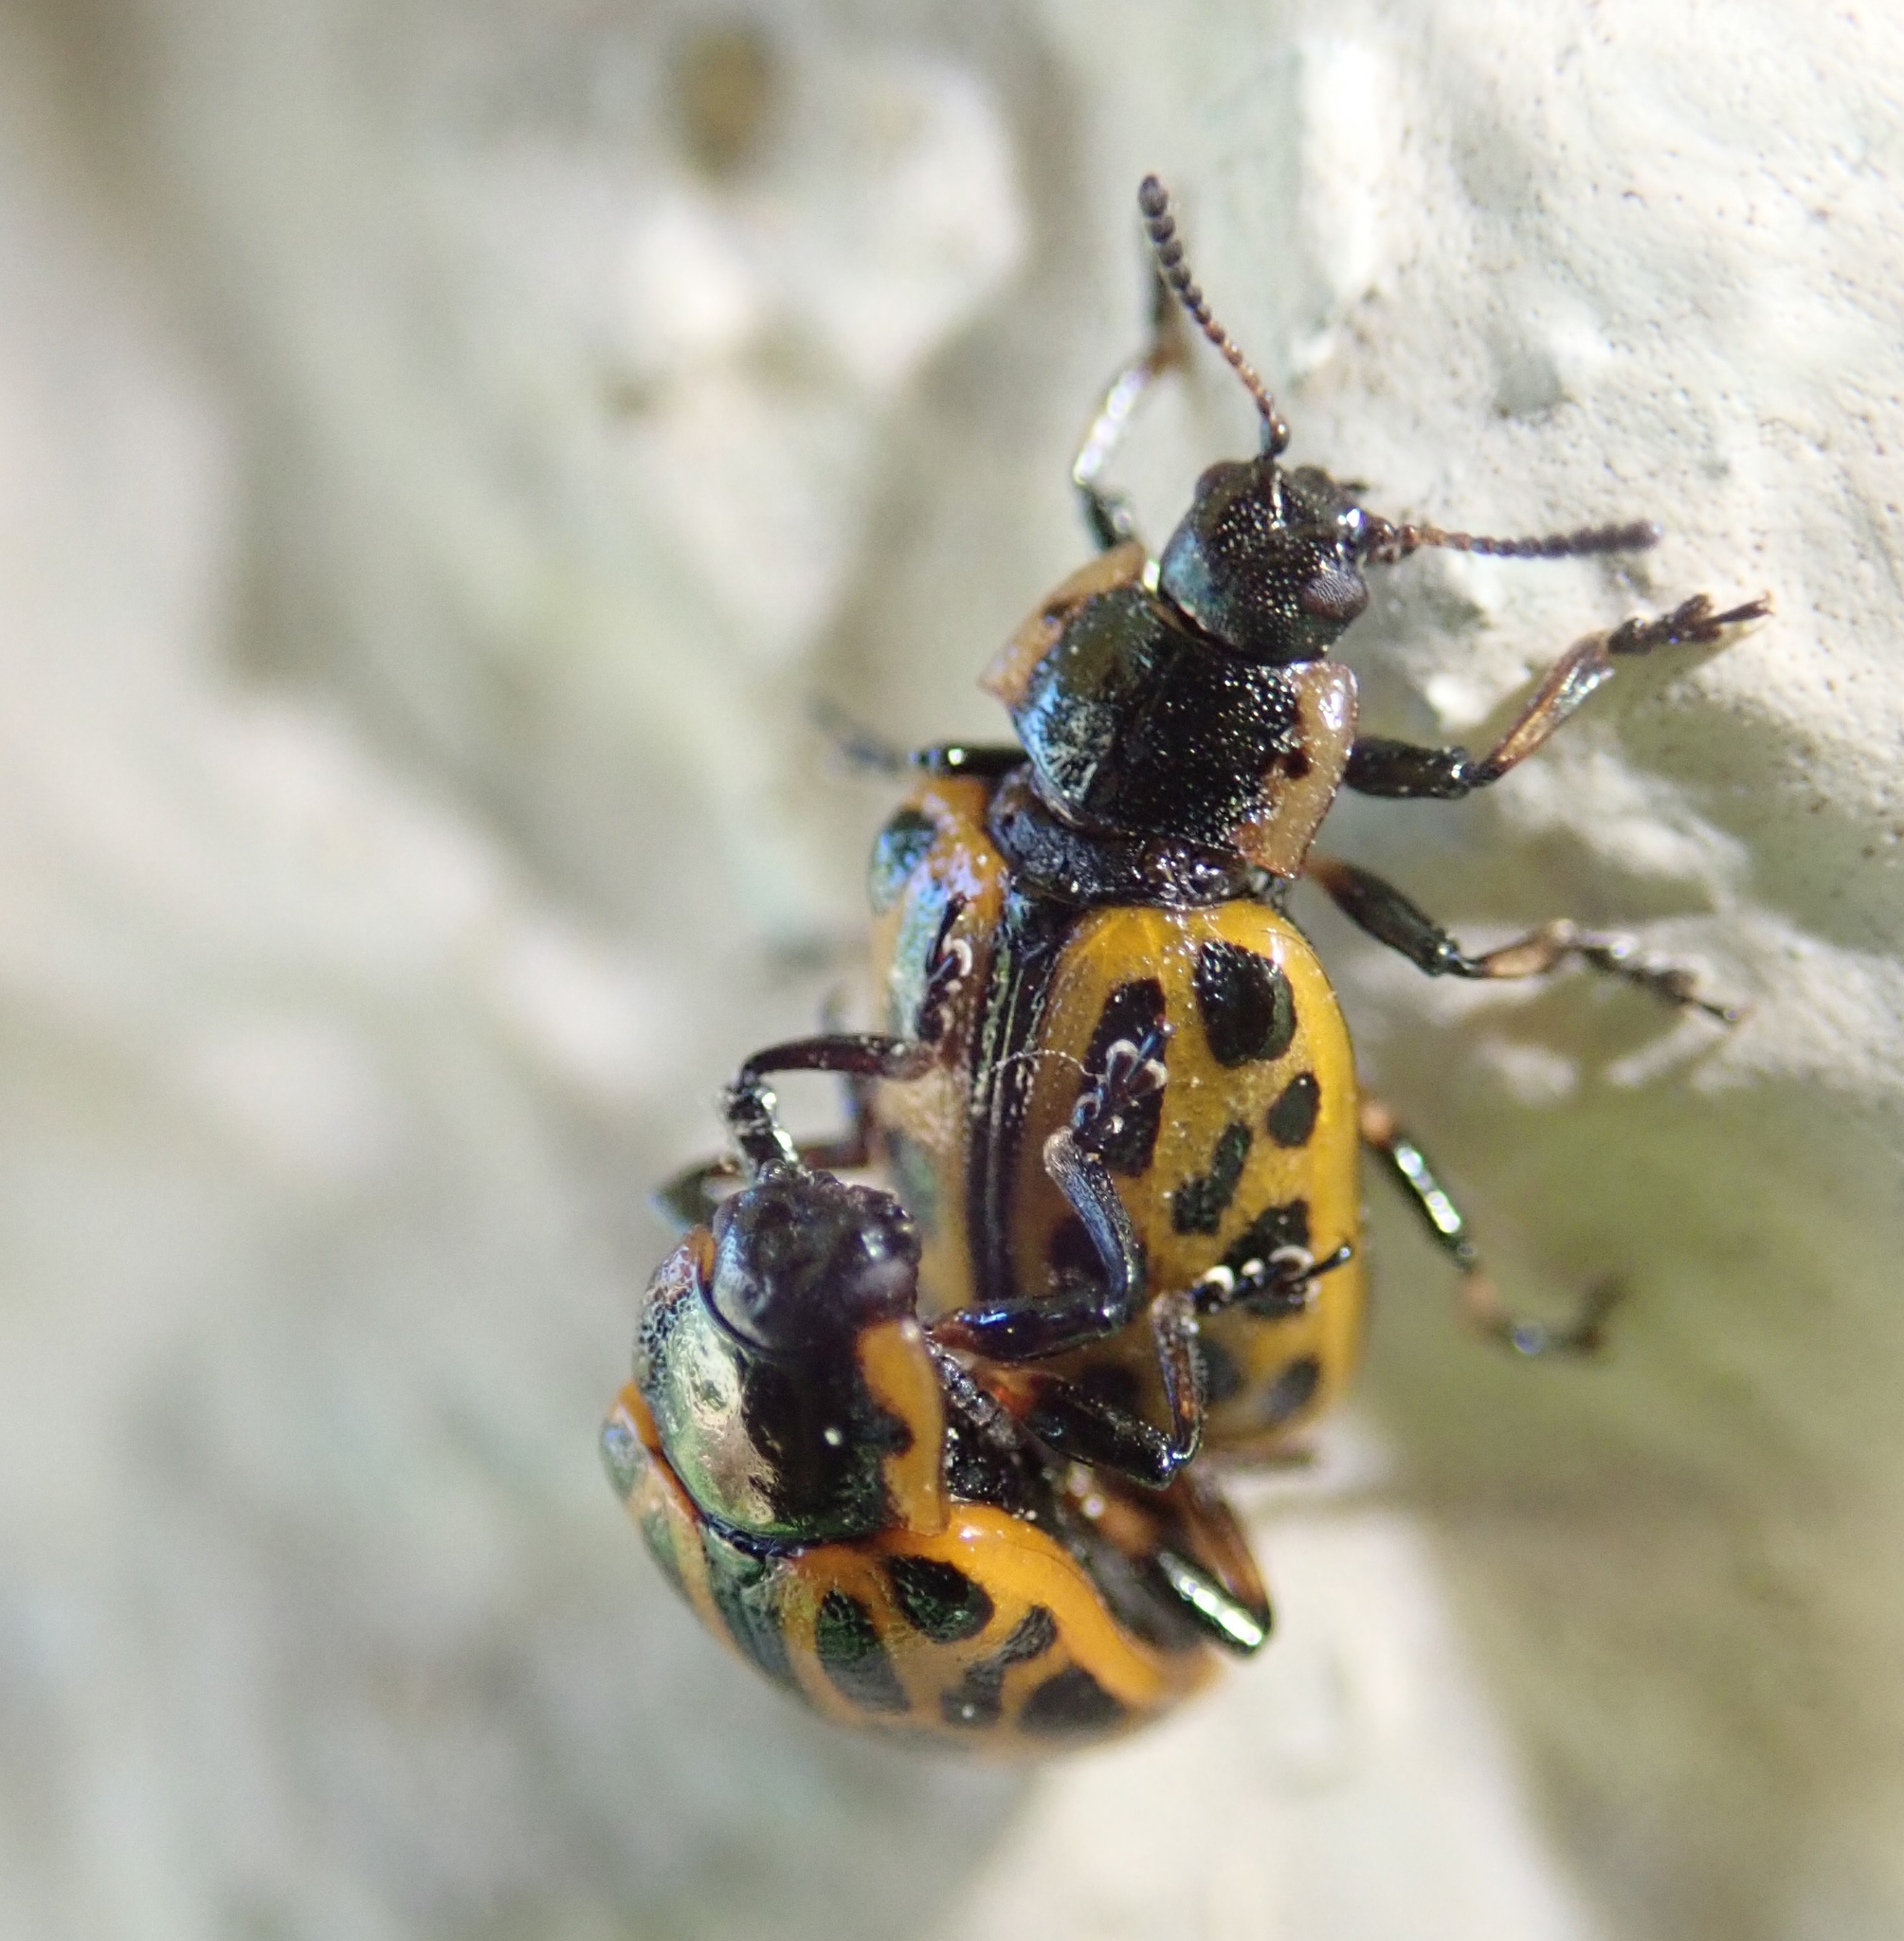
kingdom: Animalia
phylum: Arthropoda
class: Insecta
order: Coleoptera
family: Chrysomelidae
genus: Chrysomela
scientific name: Chrysomela vigintipunctata
